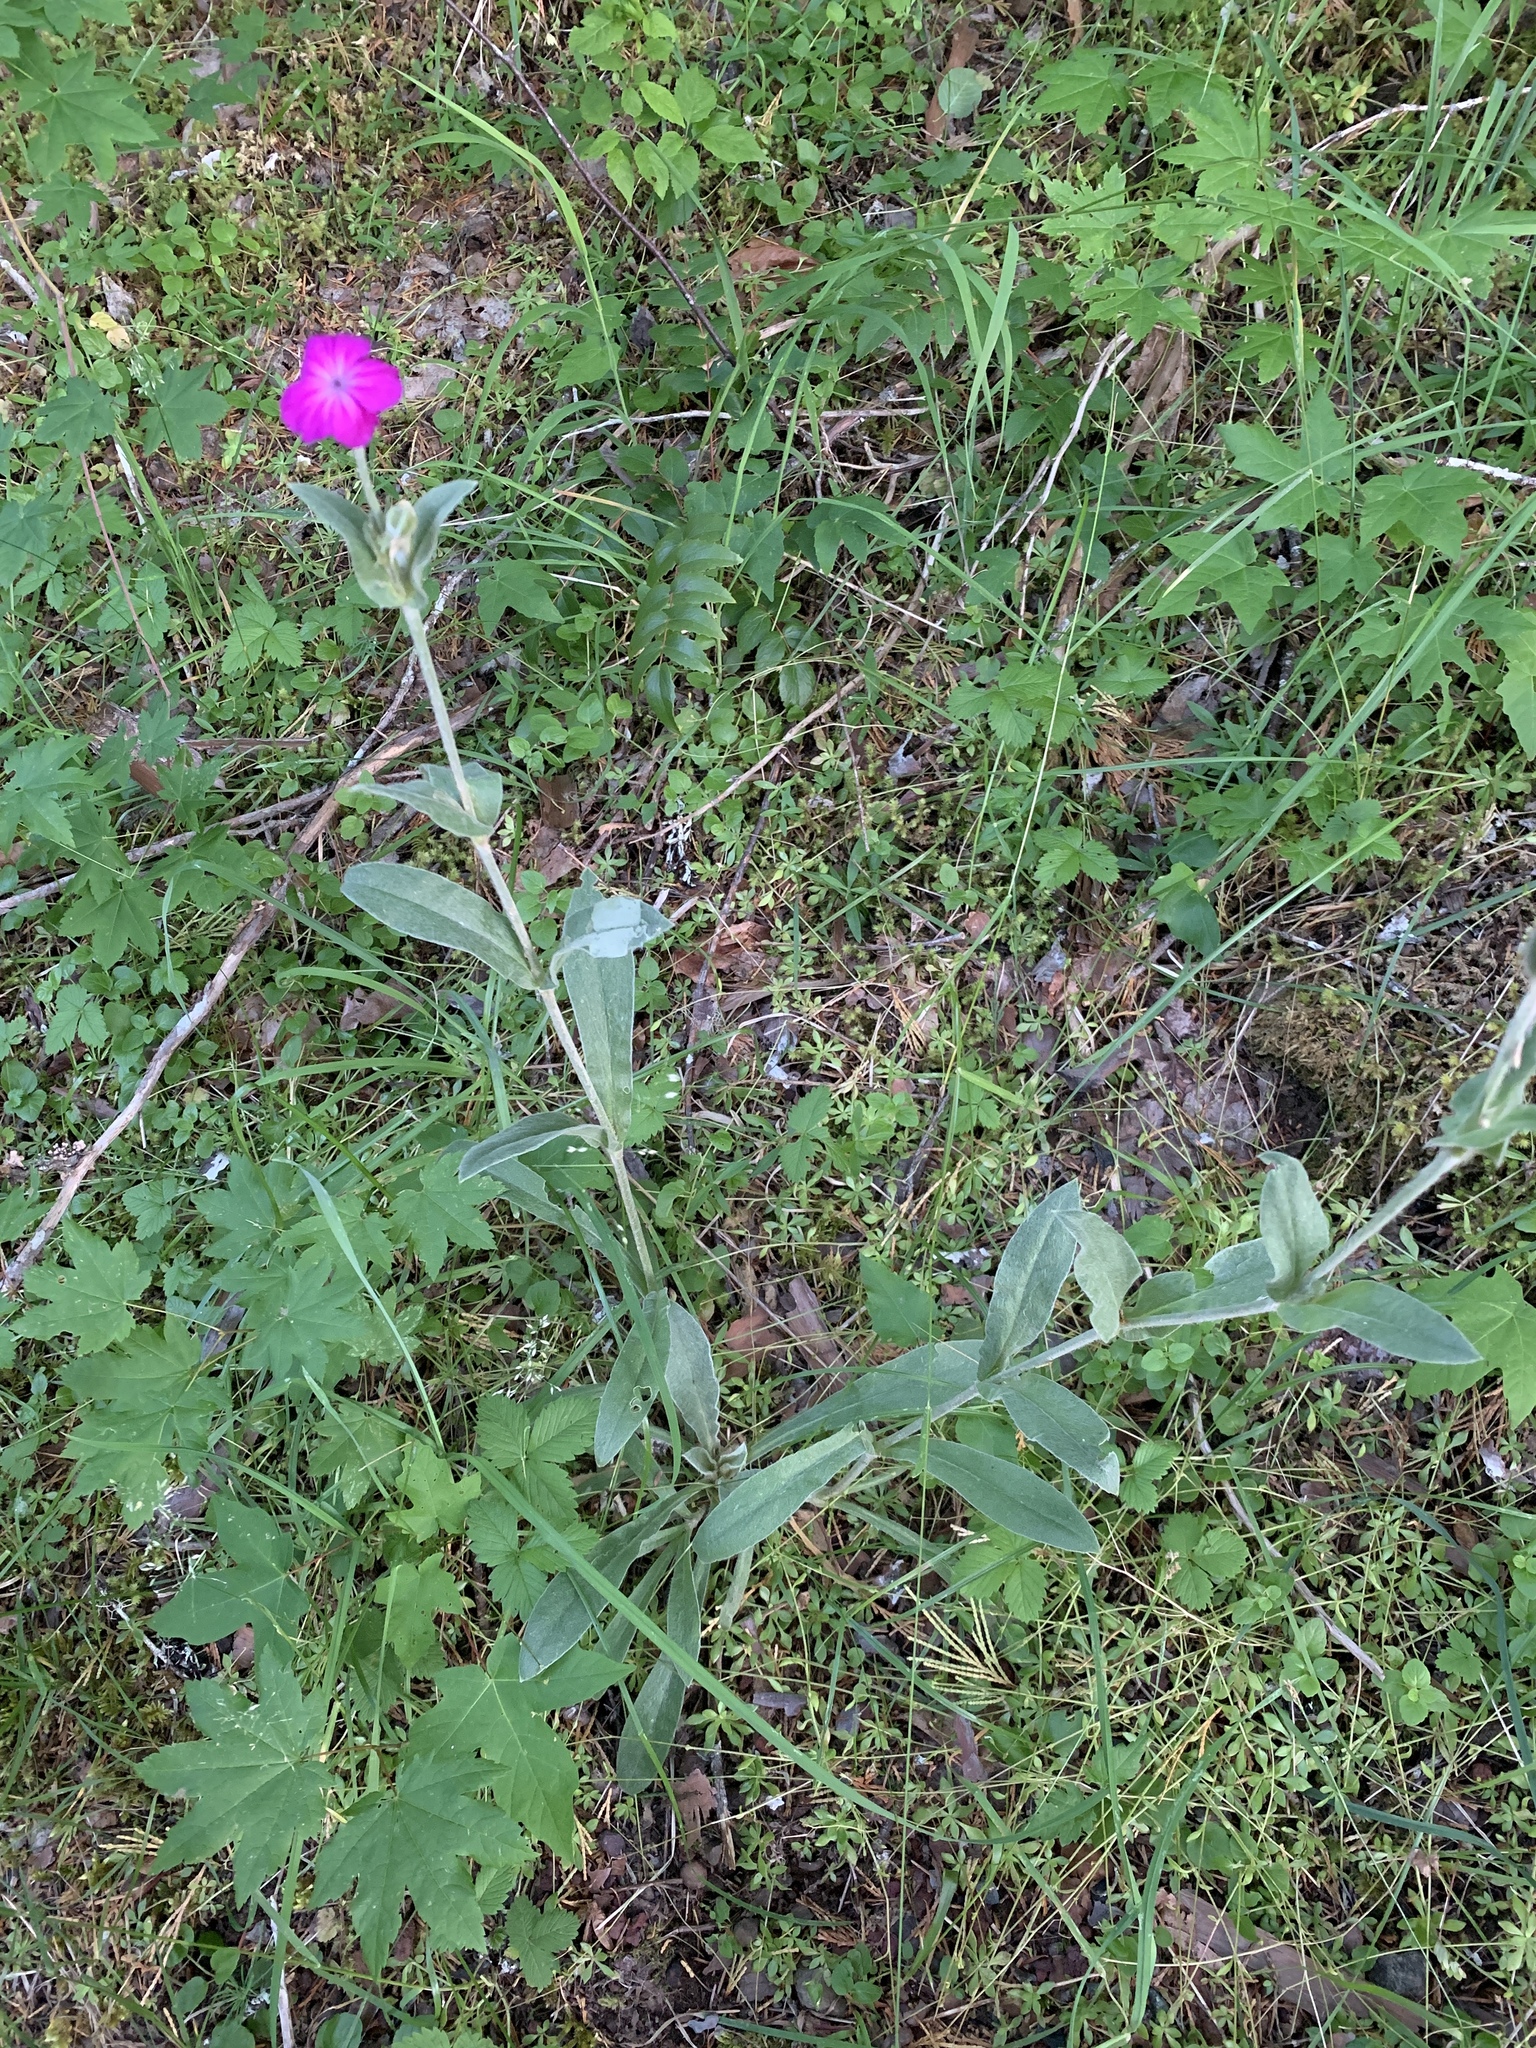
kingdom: Plantae
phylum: Tracheophyta
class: Magnoliopsida
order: Caryophyllales
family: Caryophyllaceae
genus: Silene
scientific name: Silene coronaria
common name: Rose campion
